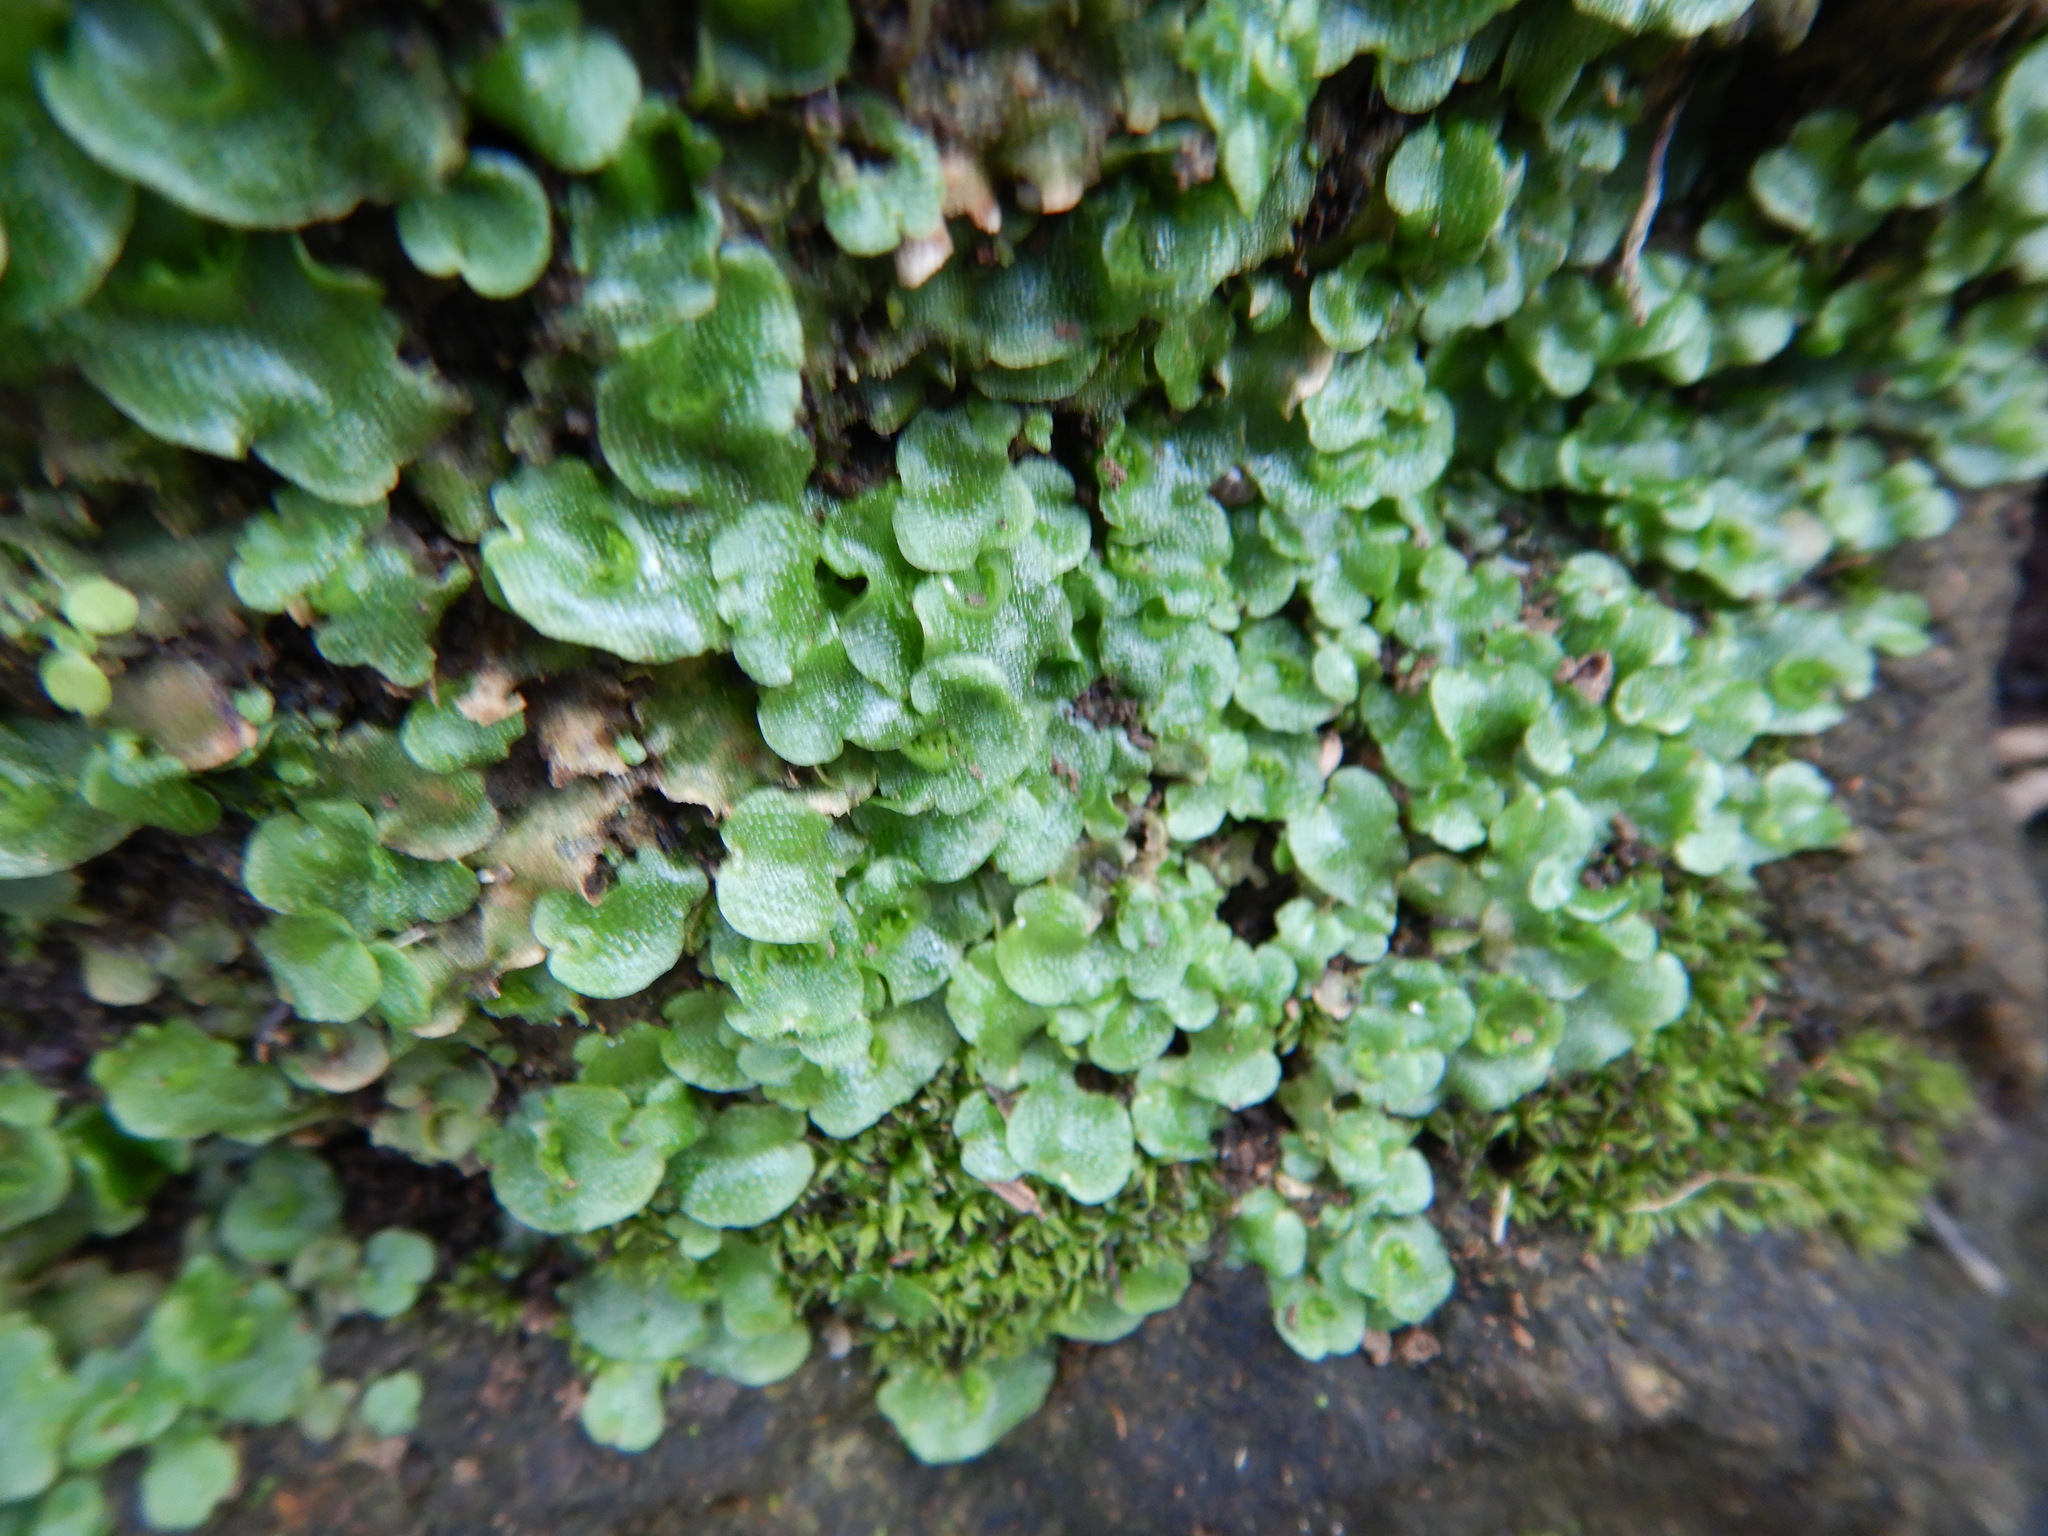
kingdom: Plantae
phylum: Marchantiophyta
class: Marchantiopsida
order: Lunulariales
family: Lunulariaceae
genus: Lunularia
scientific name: Lunularia cruciata
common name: Crescent-cup liverwort
